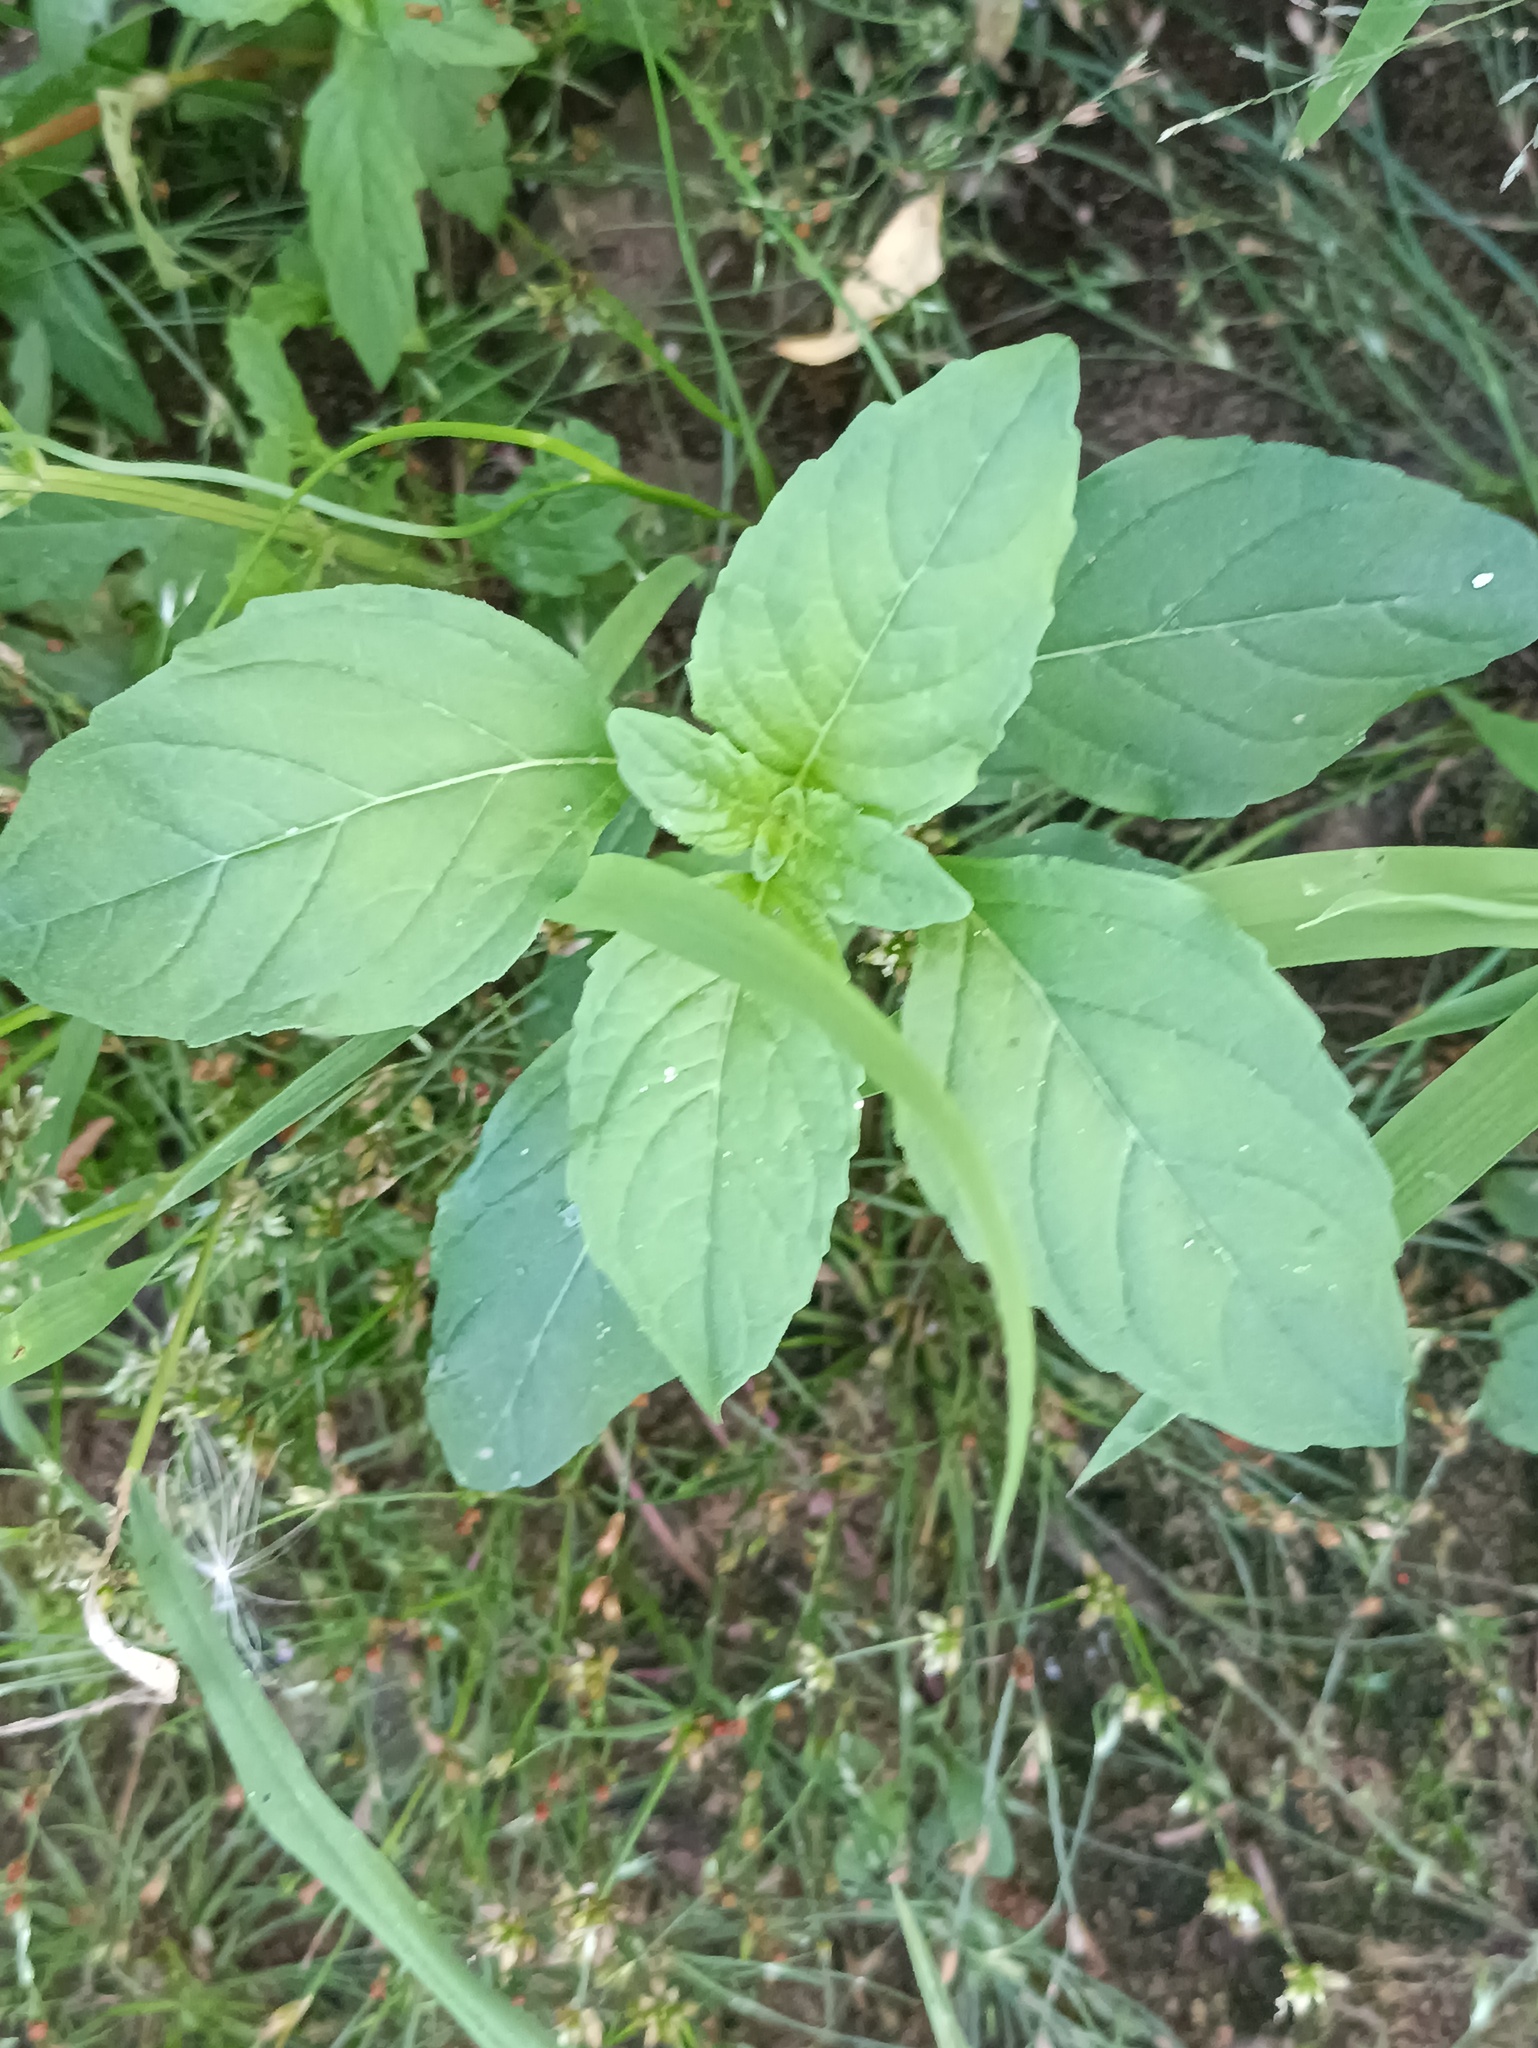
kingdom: Plantae
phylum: Tracheophyta
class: Magnoliopsida
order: Lamiales
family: Lamiaceae
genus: Mentha
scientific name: Mentha arvensis
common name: Corn mint
